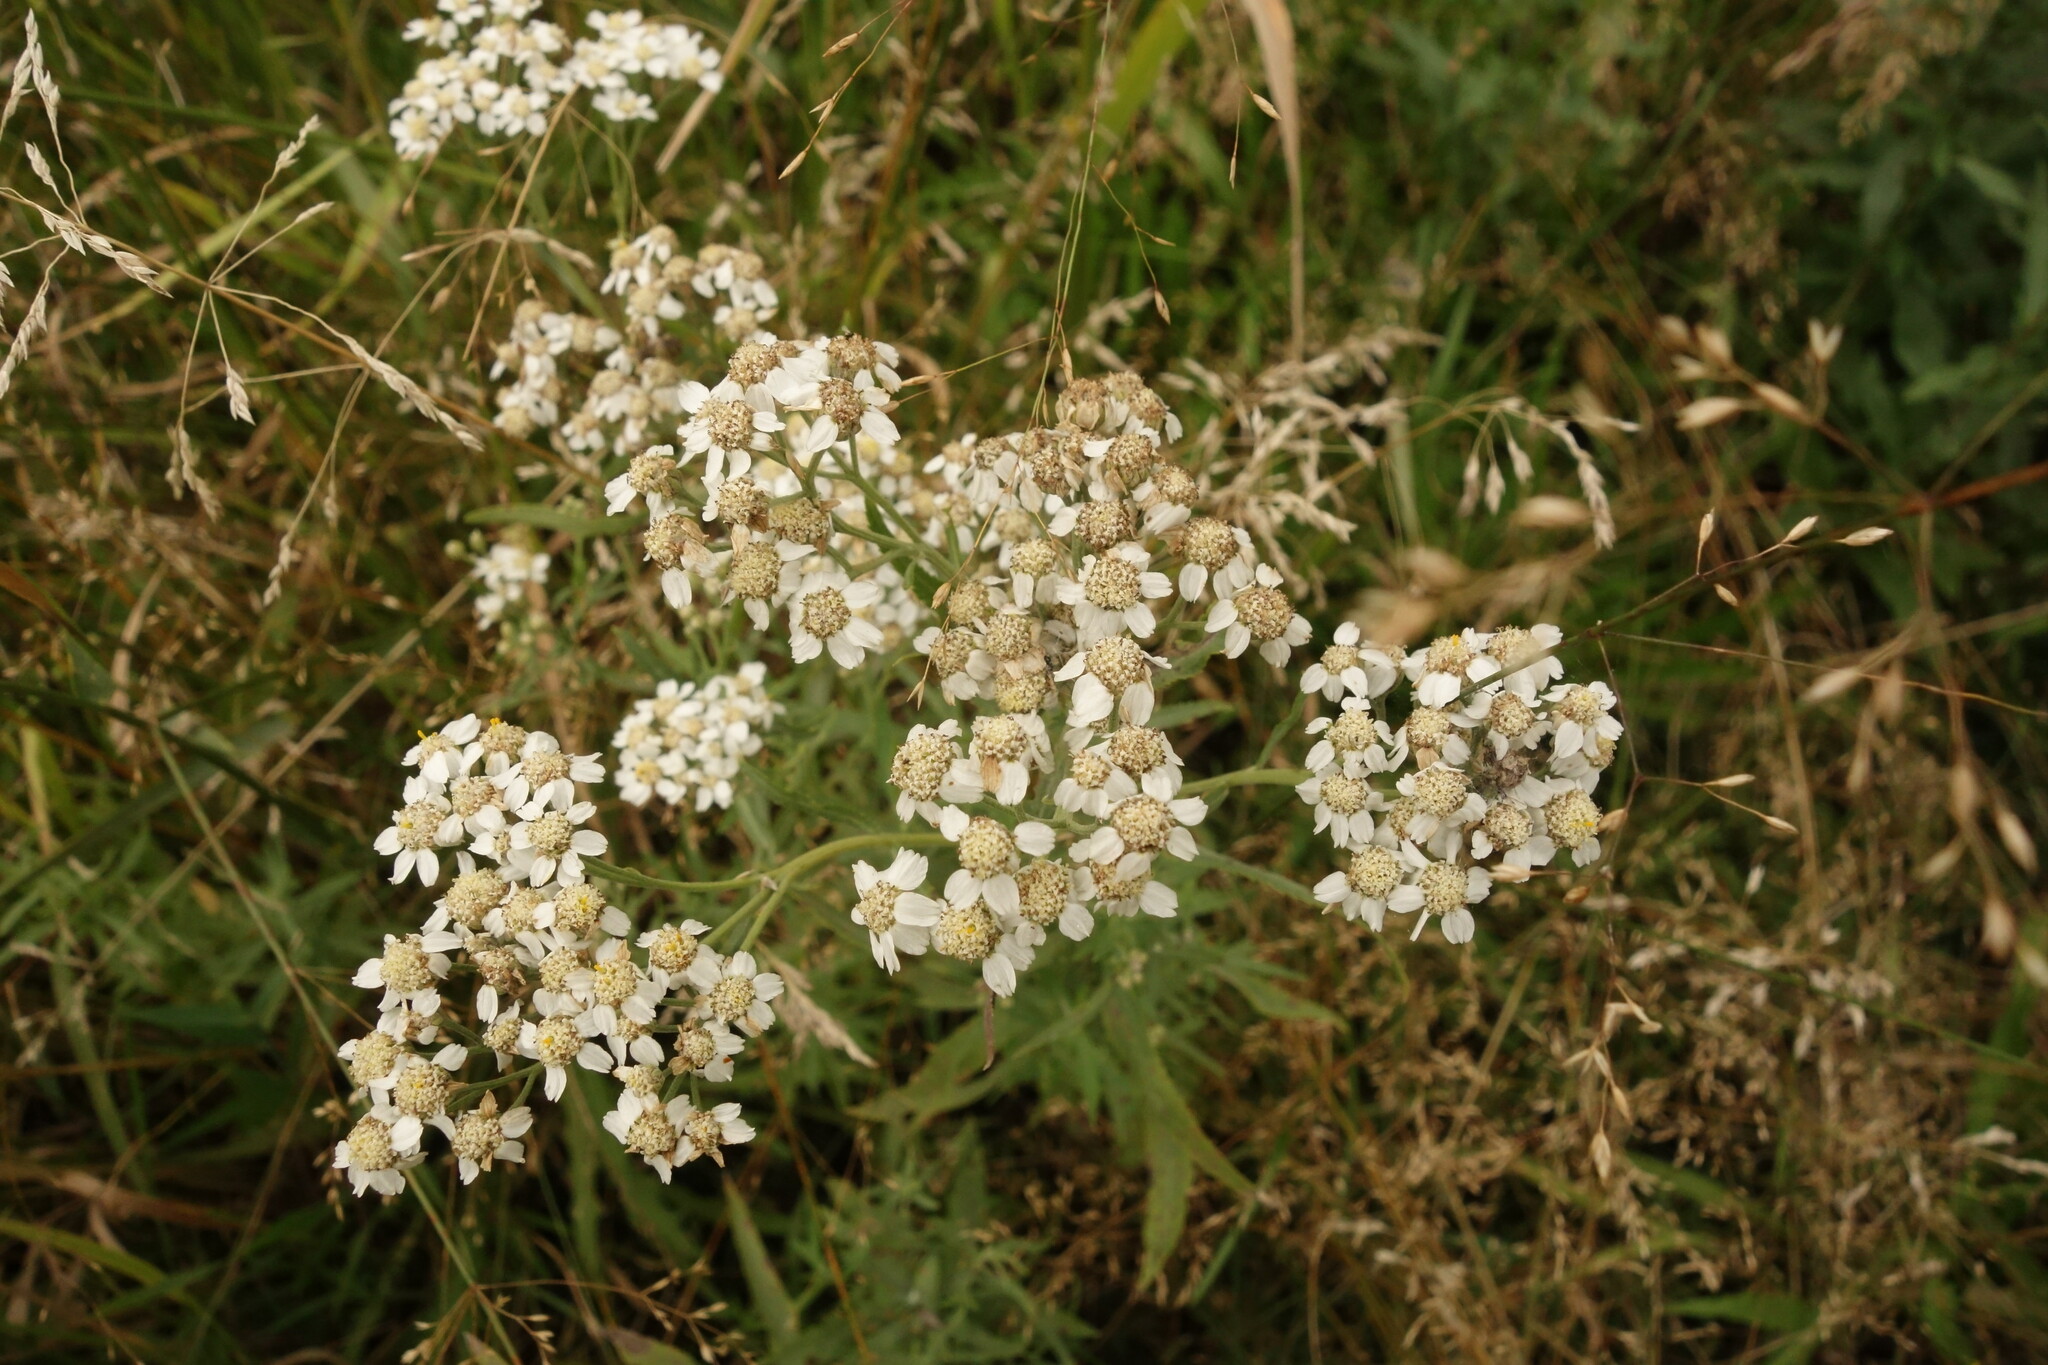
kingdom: Plantae
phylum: Tracheophyta
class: Magnoliopsida
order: Asterales
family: Asteraceae
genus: Achillea
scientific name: Achillea salicifolia
